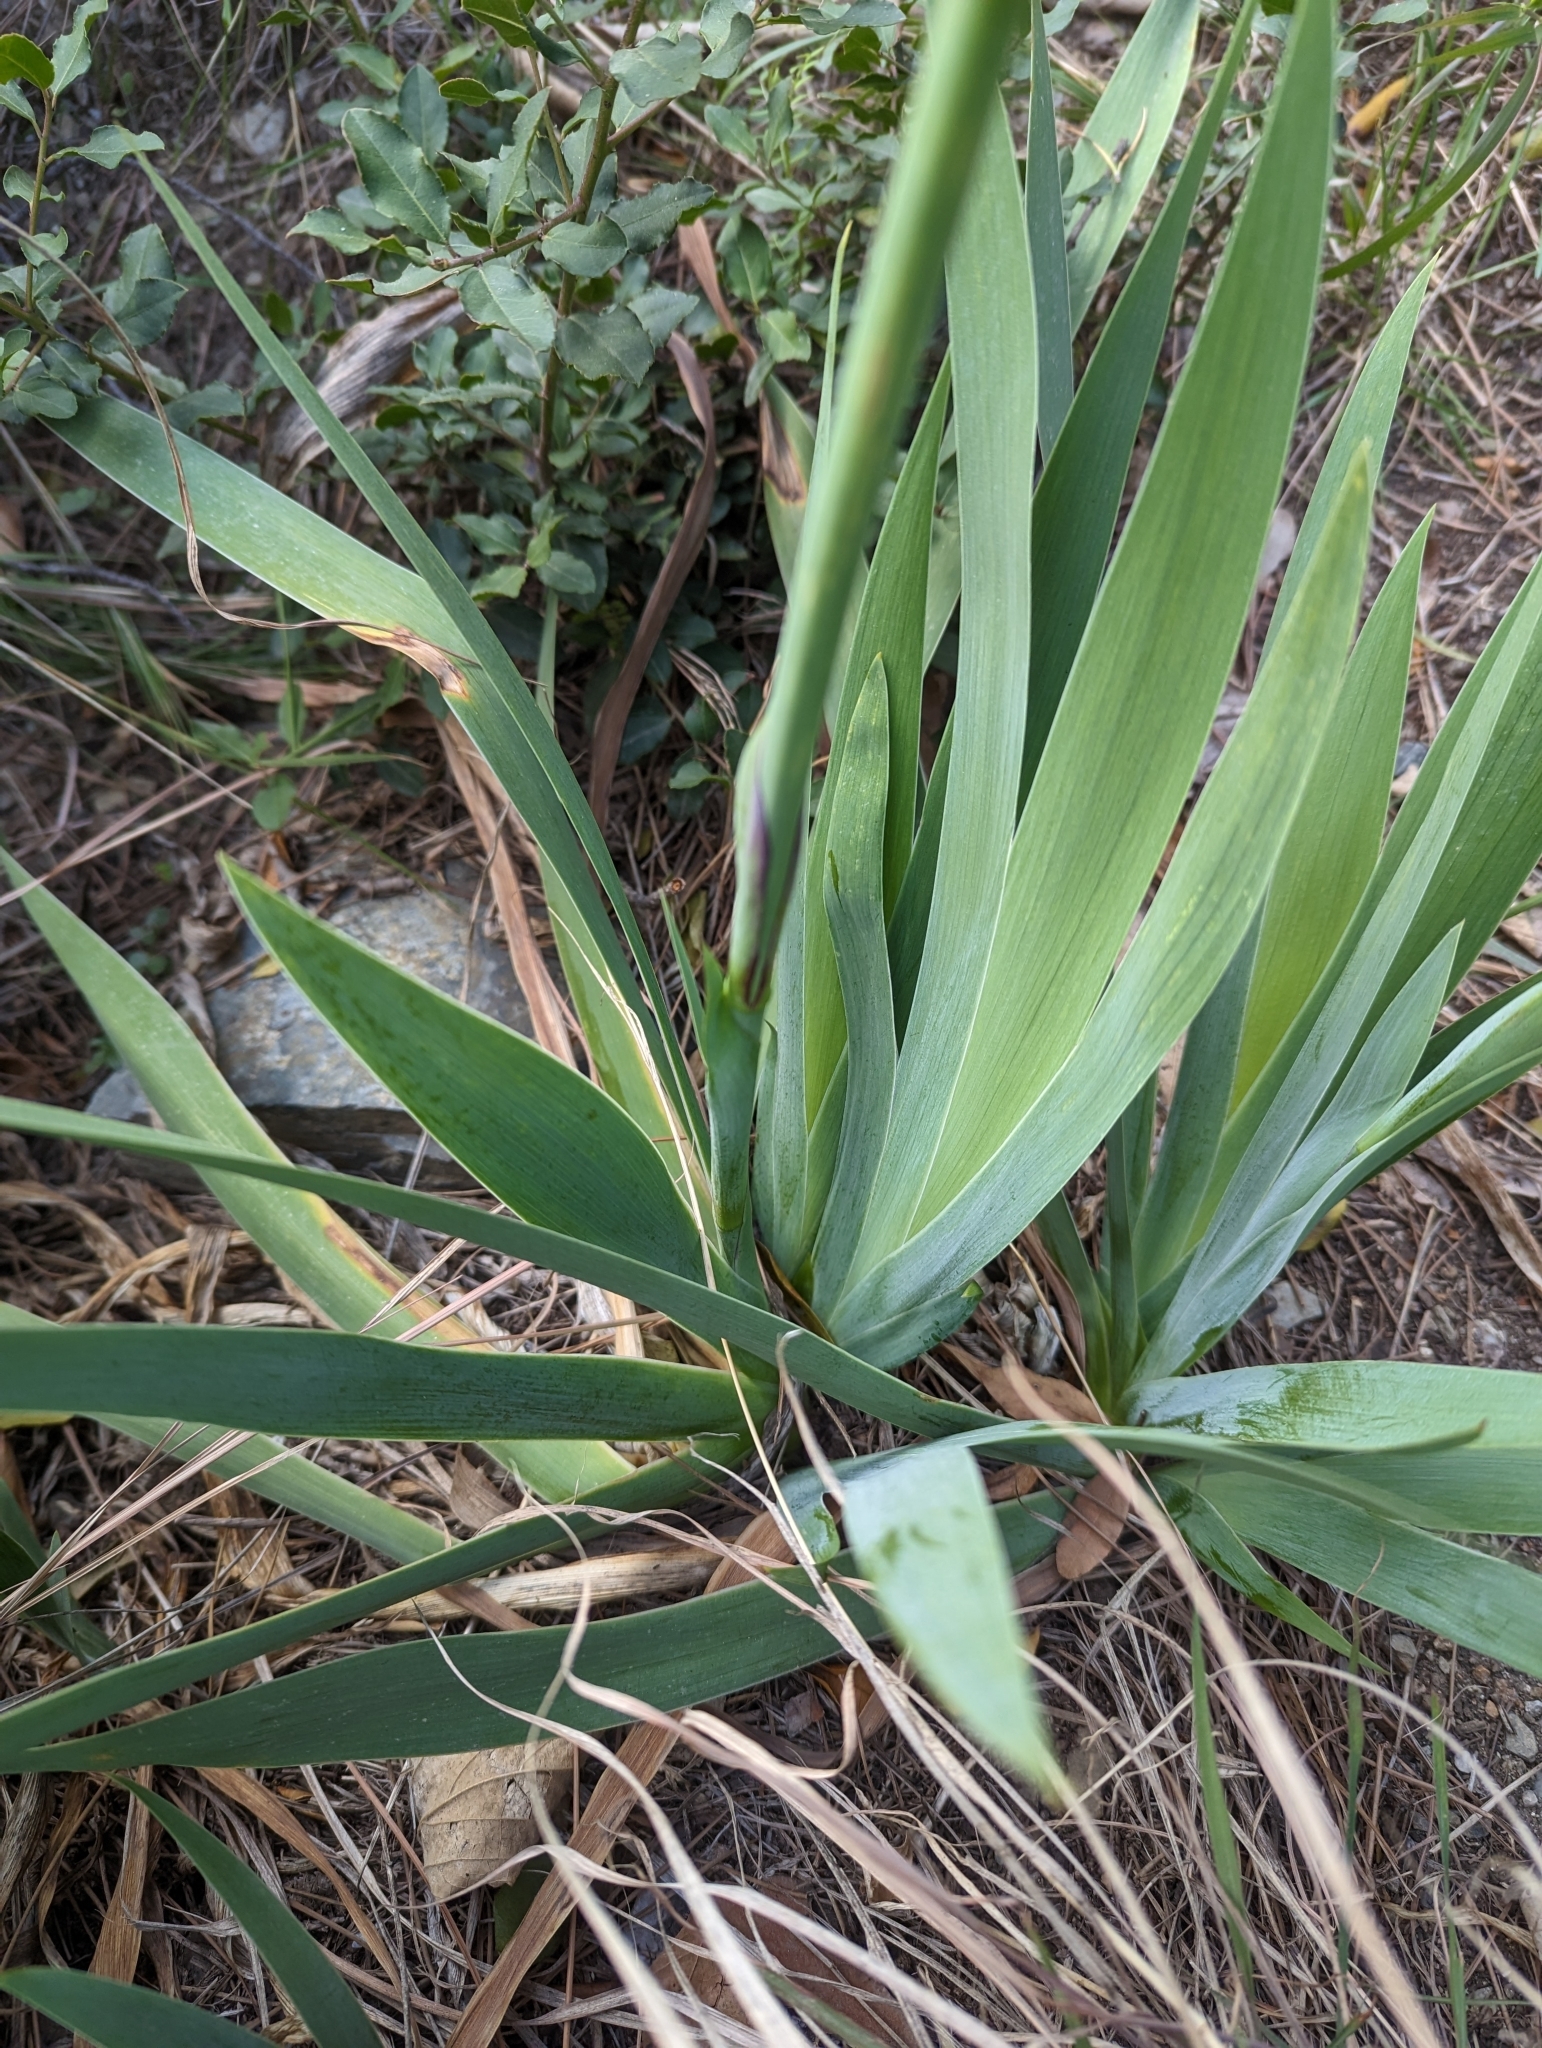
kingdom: Plantae
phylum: Tracheophyta
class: Liliopsida
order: Asparagales
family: Iridaceae
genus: Iris
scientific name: Iris germanica
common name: German iris
